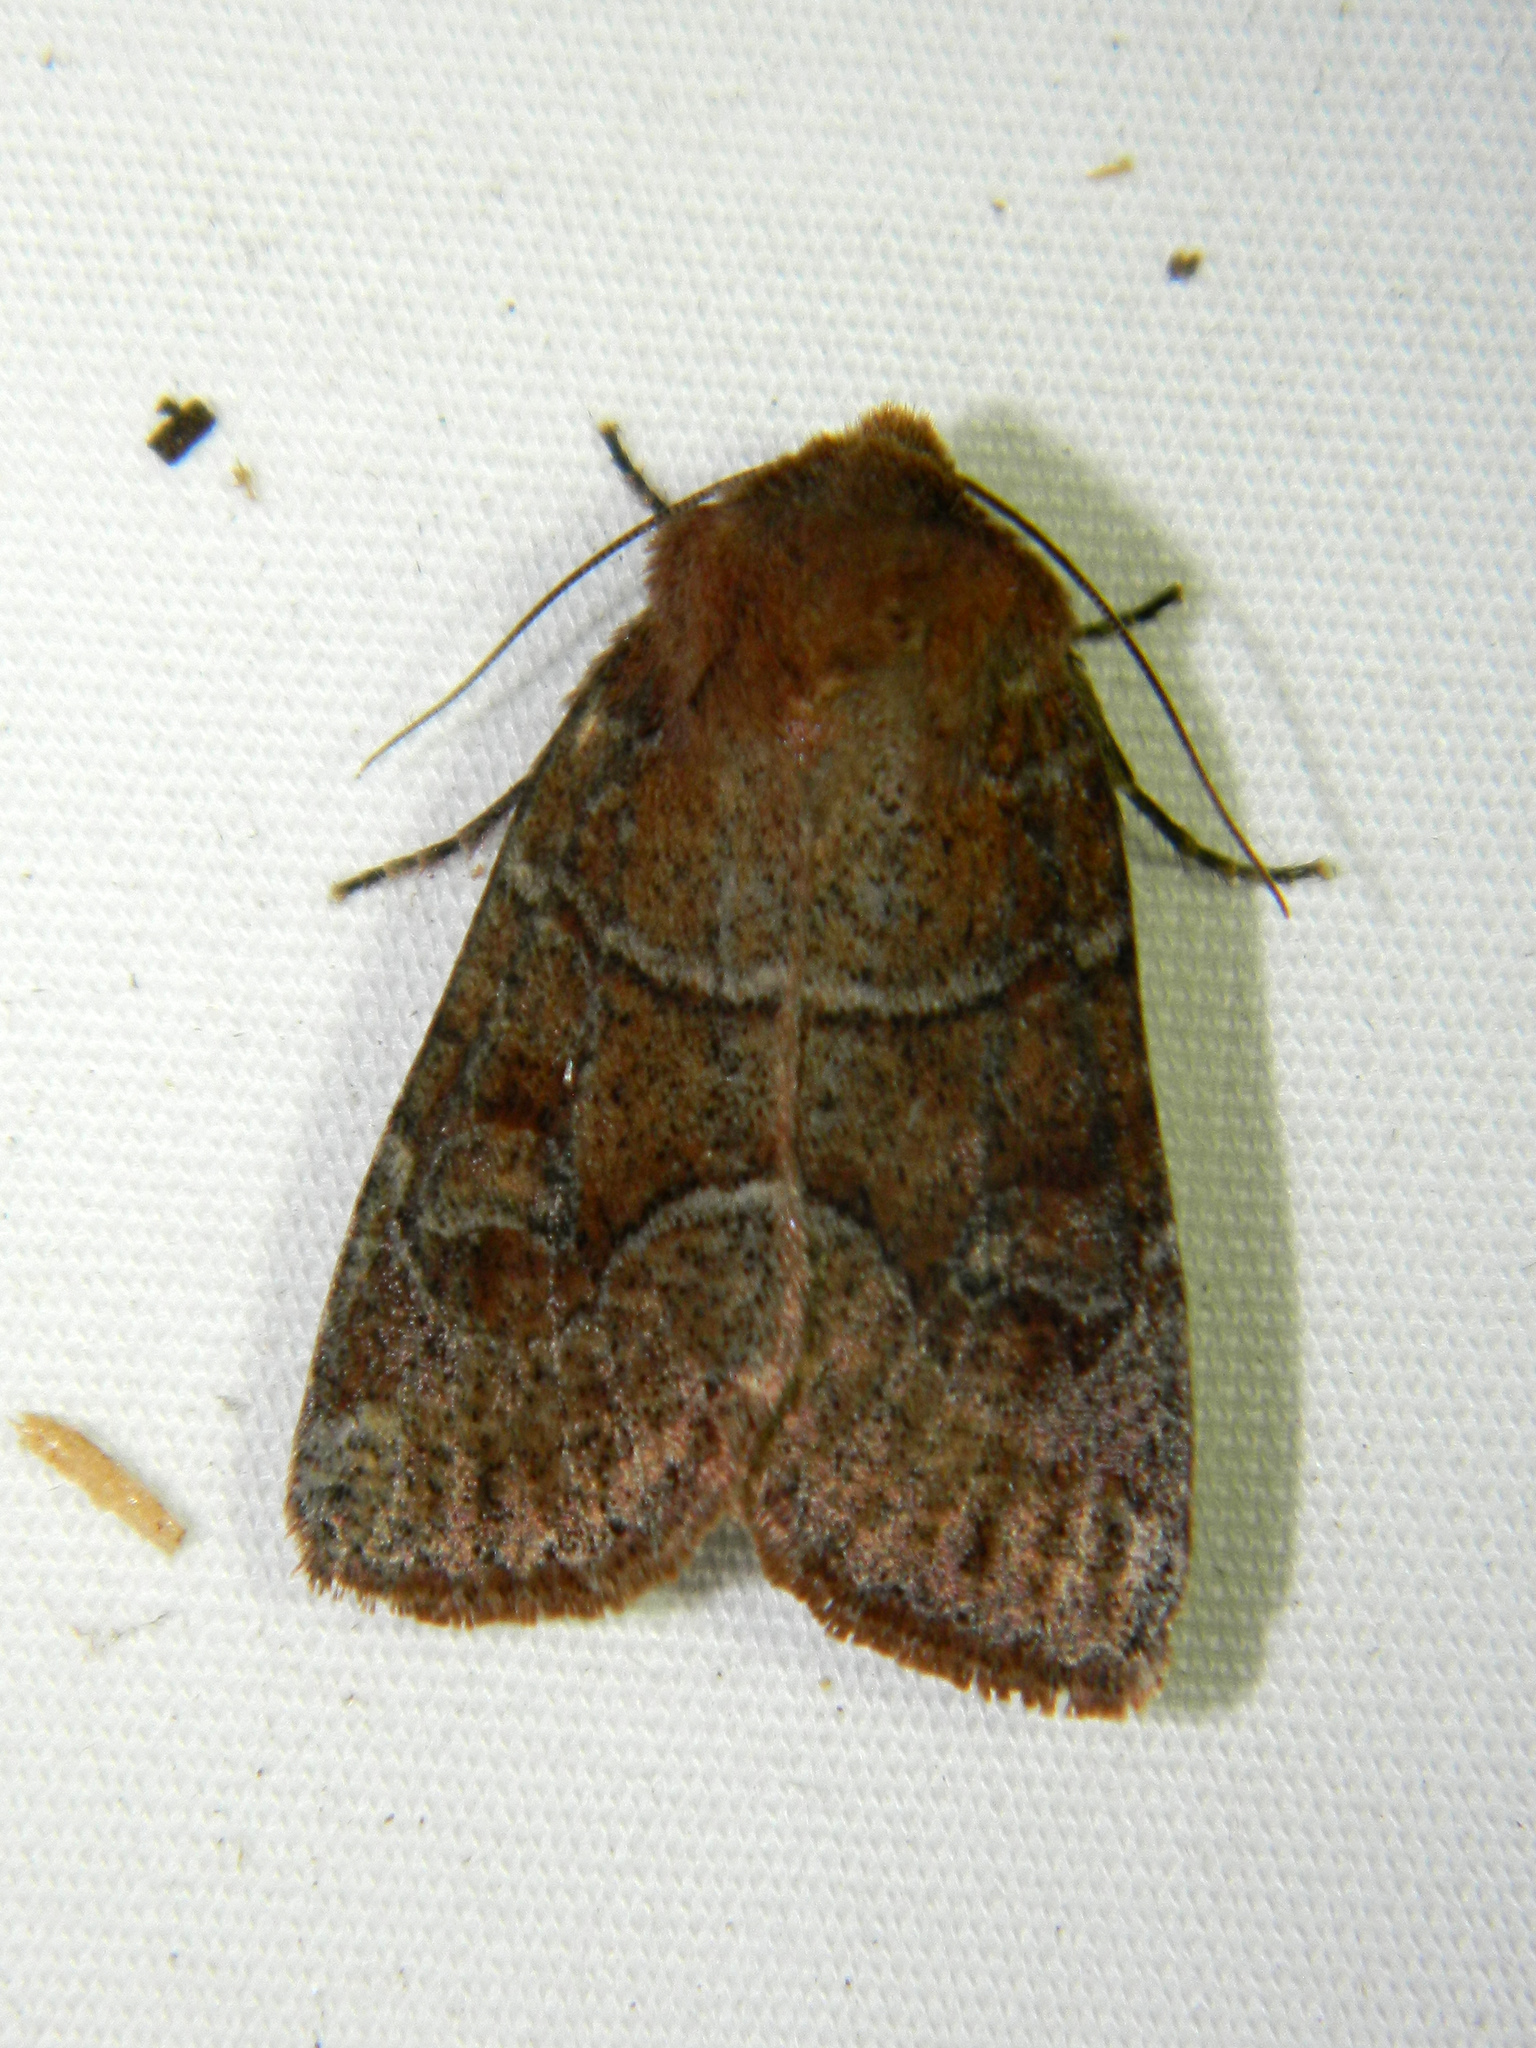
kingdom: Animalia
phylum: Arthropoda
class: Insecta
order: Lepidoptera
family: Noctuidae
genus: Crocigrapha
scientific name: Crocigrapha normani
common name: Norman's quaker
